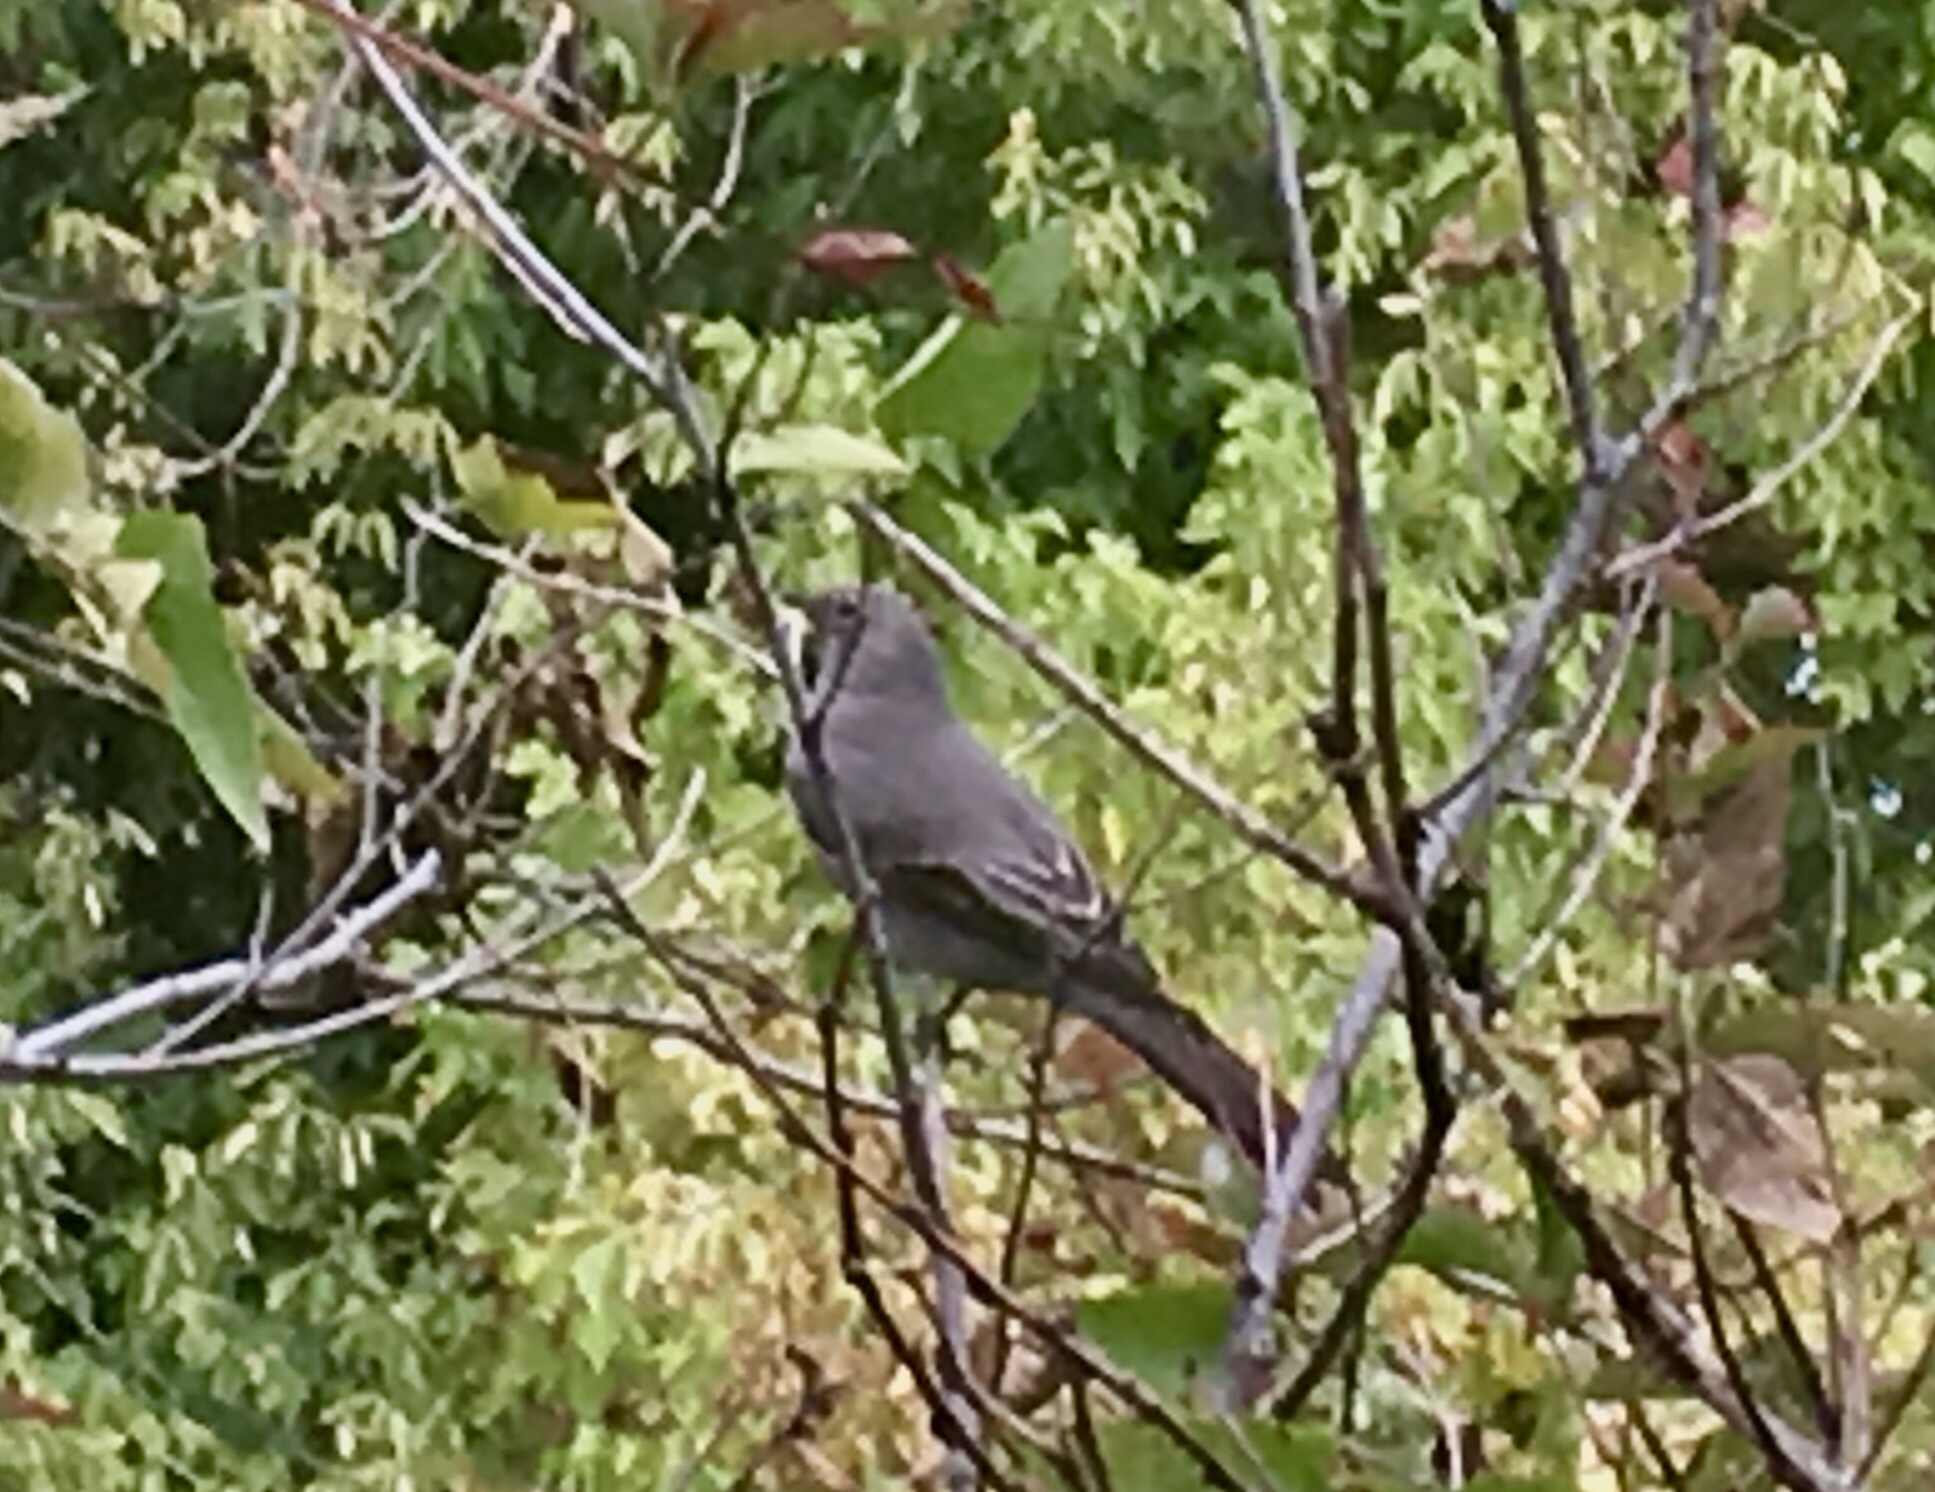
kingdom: Animalia
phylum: Chordata
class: Aves
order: Passeriformes
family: Turdidae
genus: Myadestes
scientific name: Myadestes townsendi
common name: Townsend's solitaire
